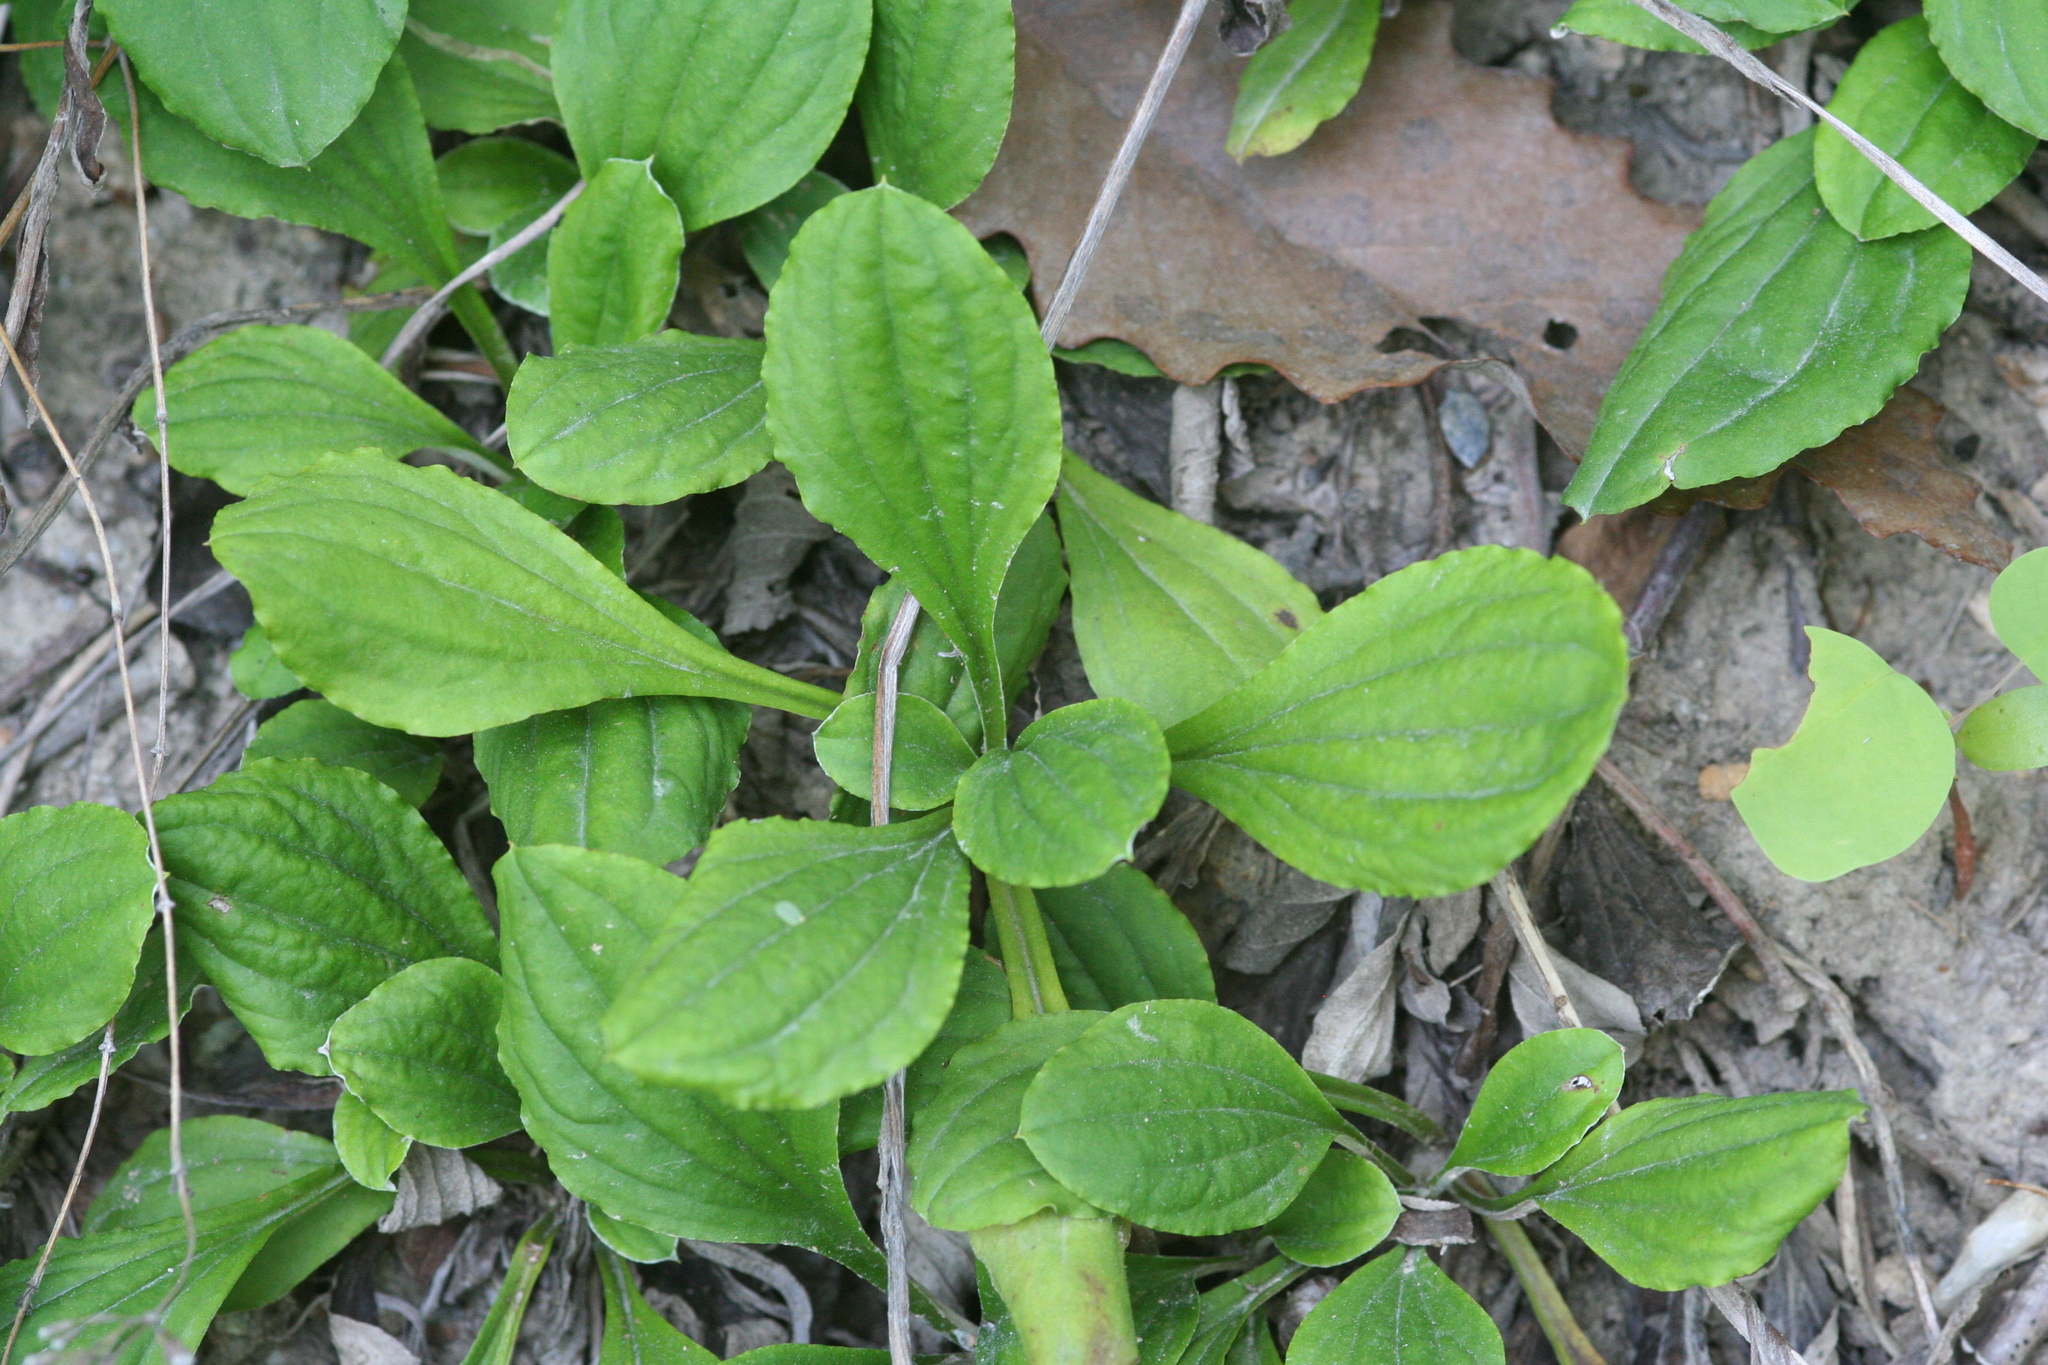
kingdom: Plantae
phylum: Tracheophyta
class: Magnoliopsida
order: Asterales
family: Asteraceae
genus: Antennaria
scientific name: Antennaria plantaginifolia
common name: Plantain-leaved pussytoes
